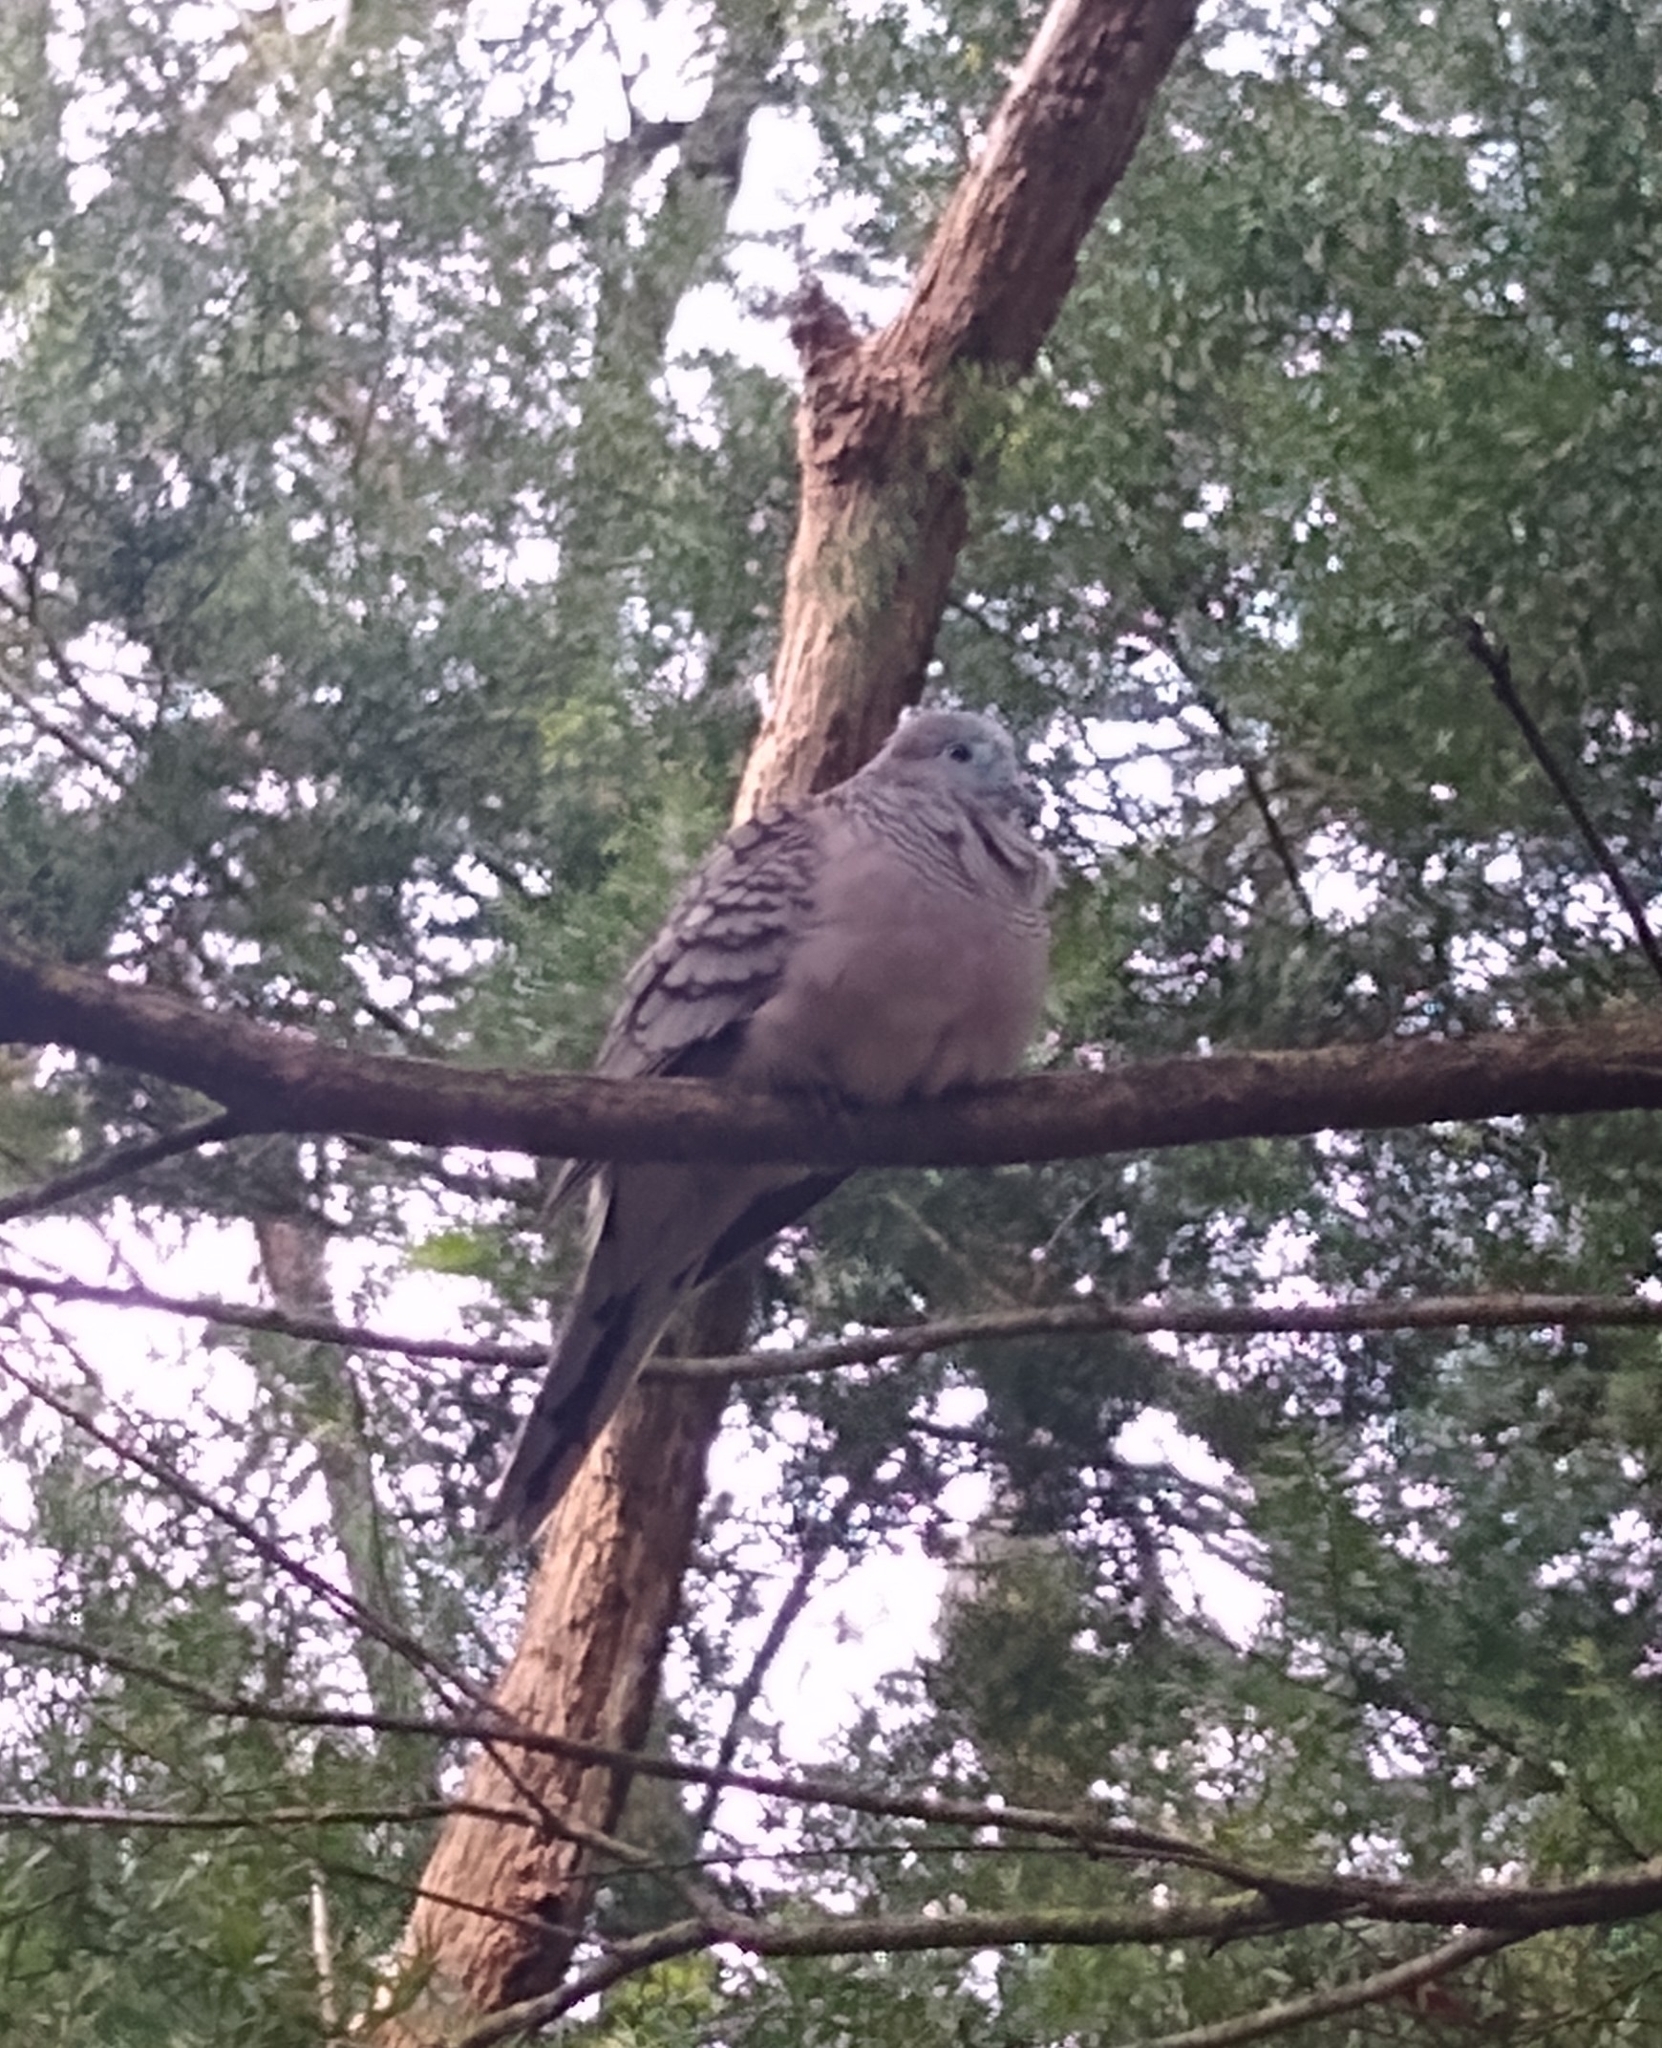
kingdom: Animalia
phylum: Chordata
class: Aves
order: Columbiformes
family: Columbidae
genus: Geopelia
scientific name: Geopelia placida
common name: Peaceful dove
